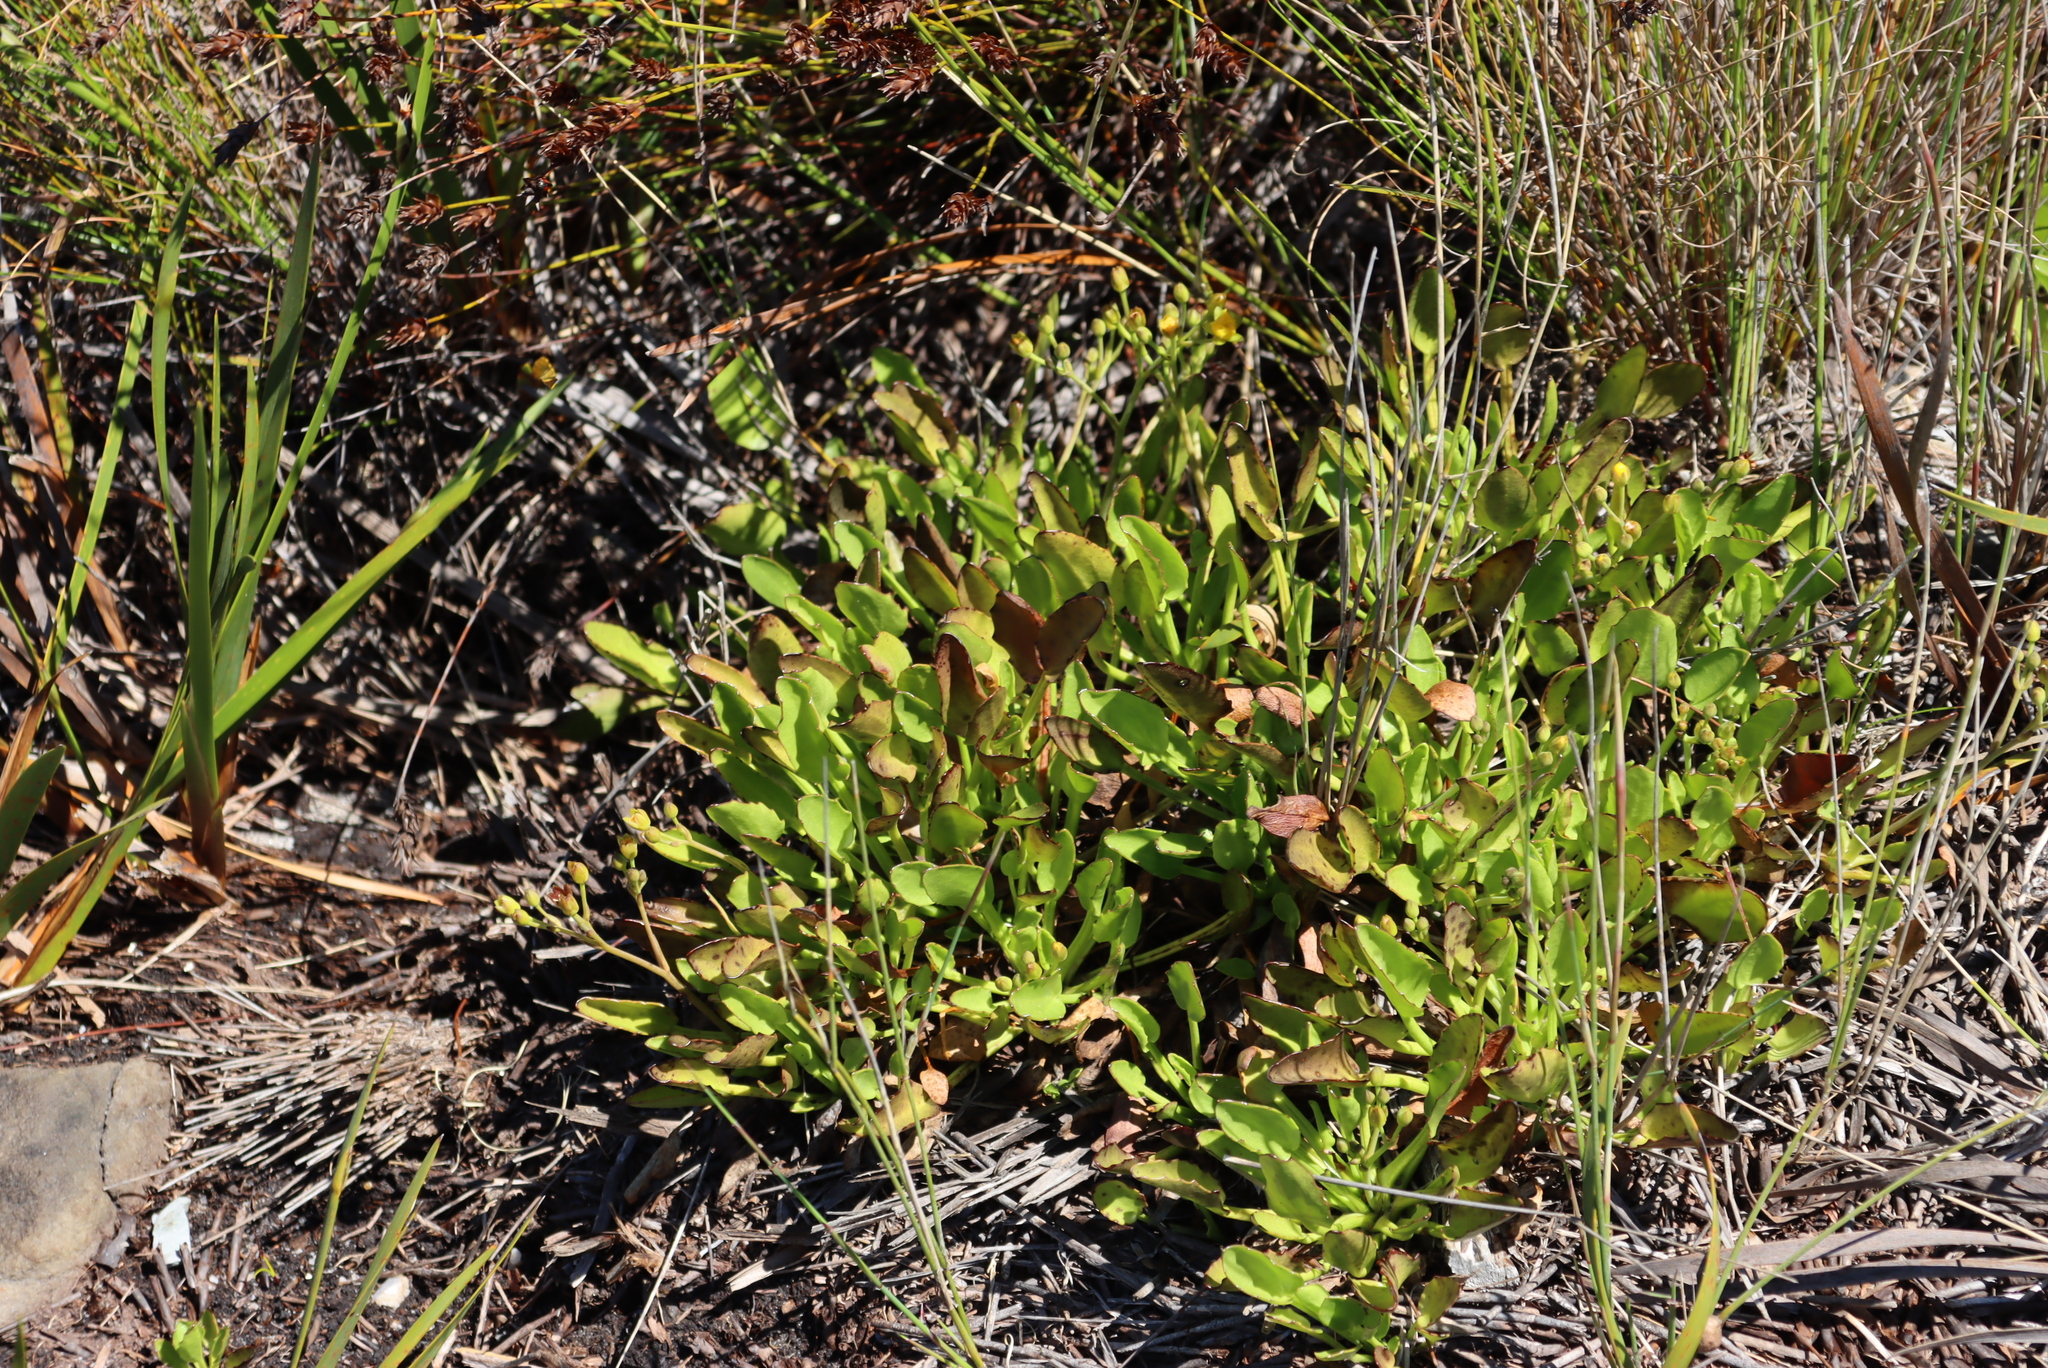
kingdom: Plantae
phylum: Tracheophyta
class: Magnoliopsida
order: Asterales
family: Menyanthaceae
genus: Villarsia
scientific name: Villarsia manningiana
